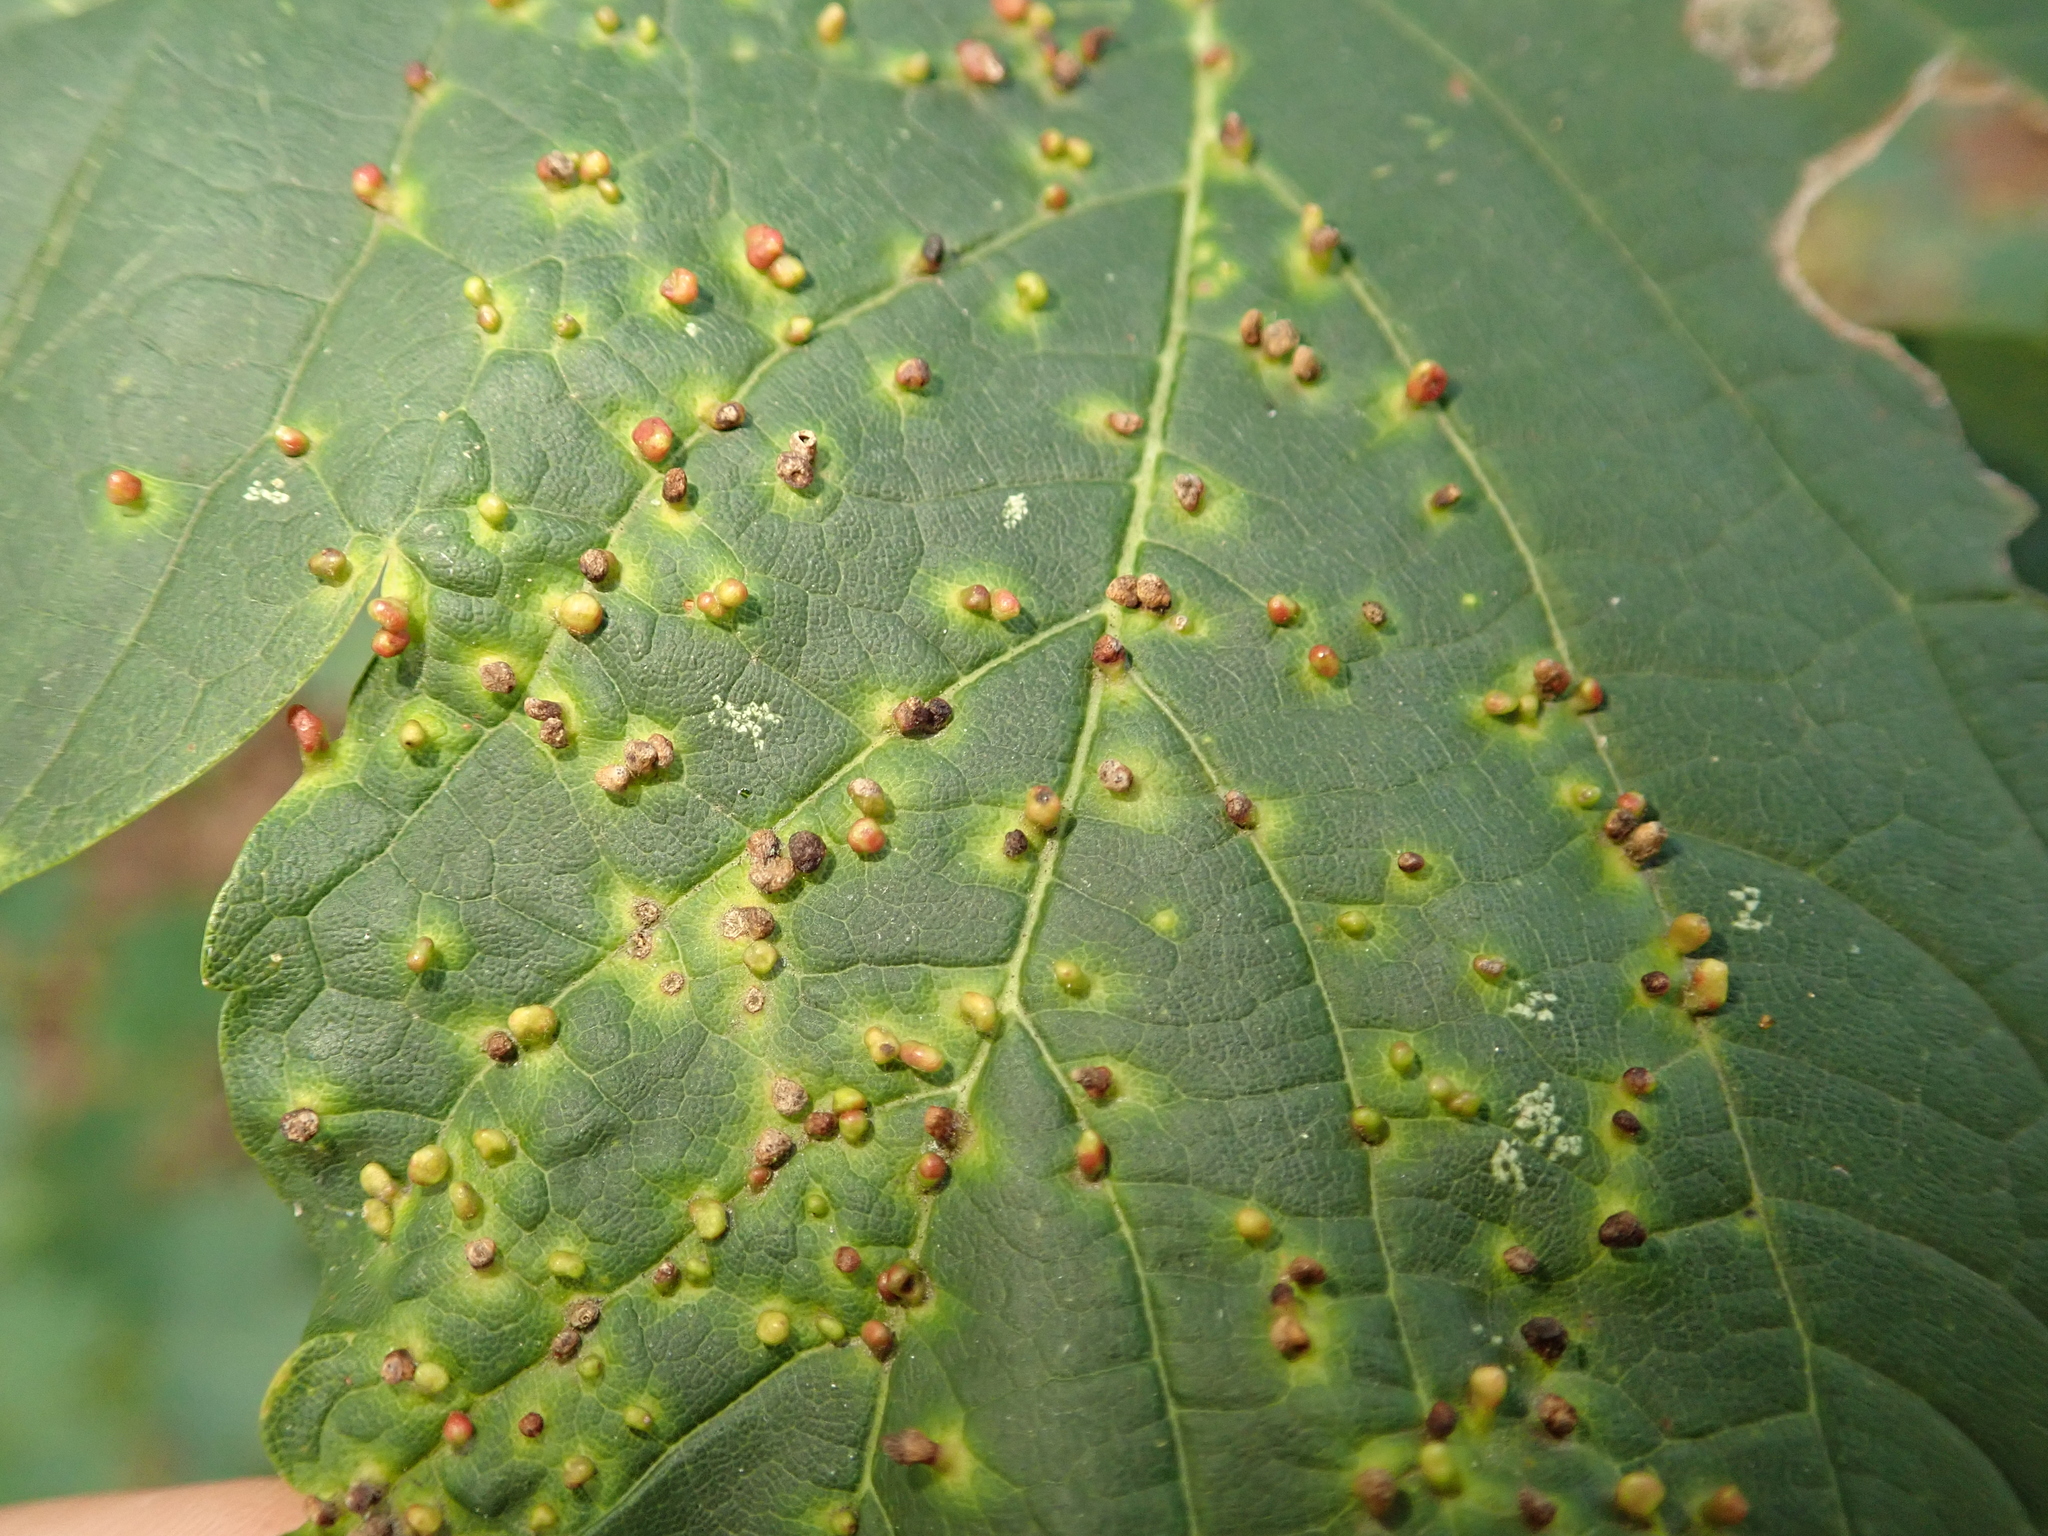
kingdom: Animalia
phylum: Arthropoda
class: Arachnida
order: Trombidiformes
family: Eriophyidae
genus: Aceria
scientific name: Aceria cephaloneus
